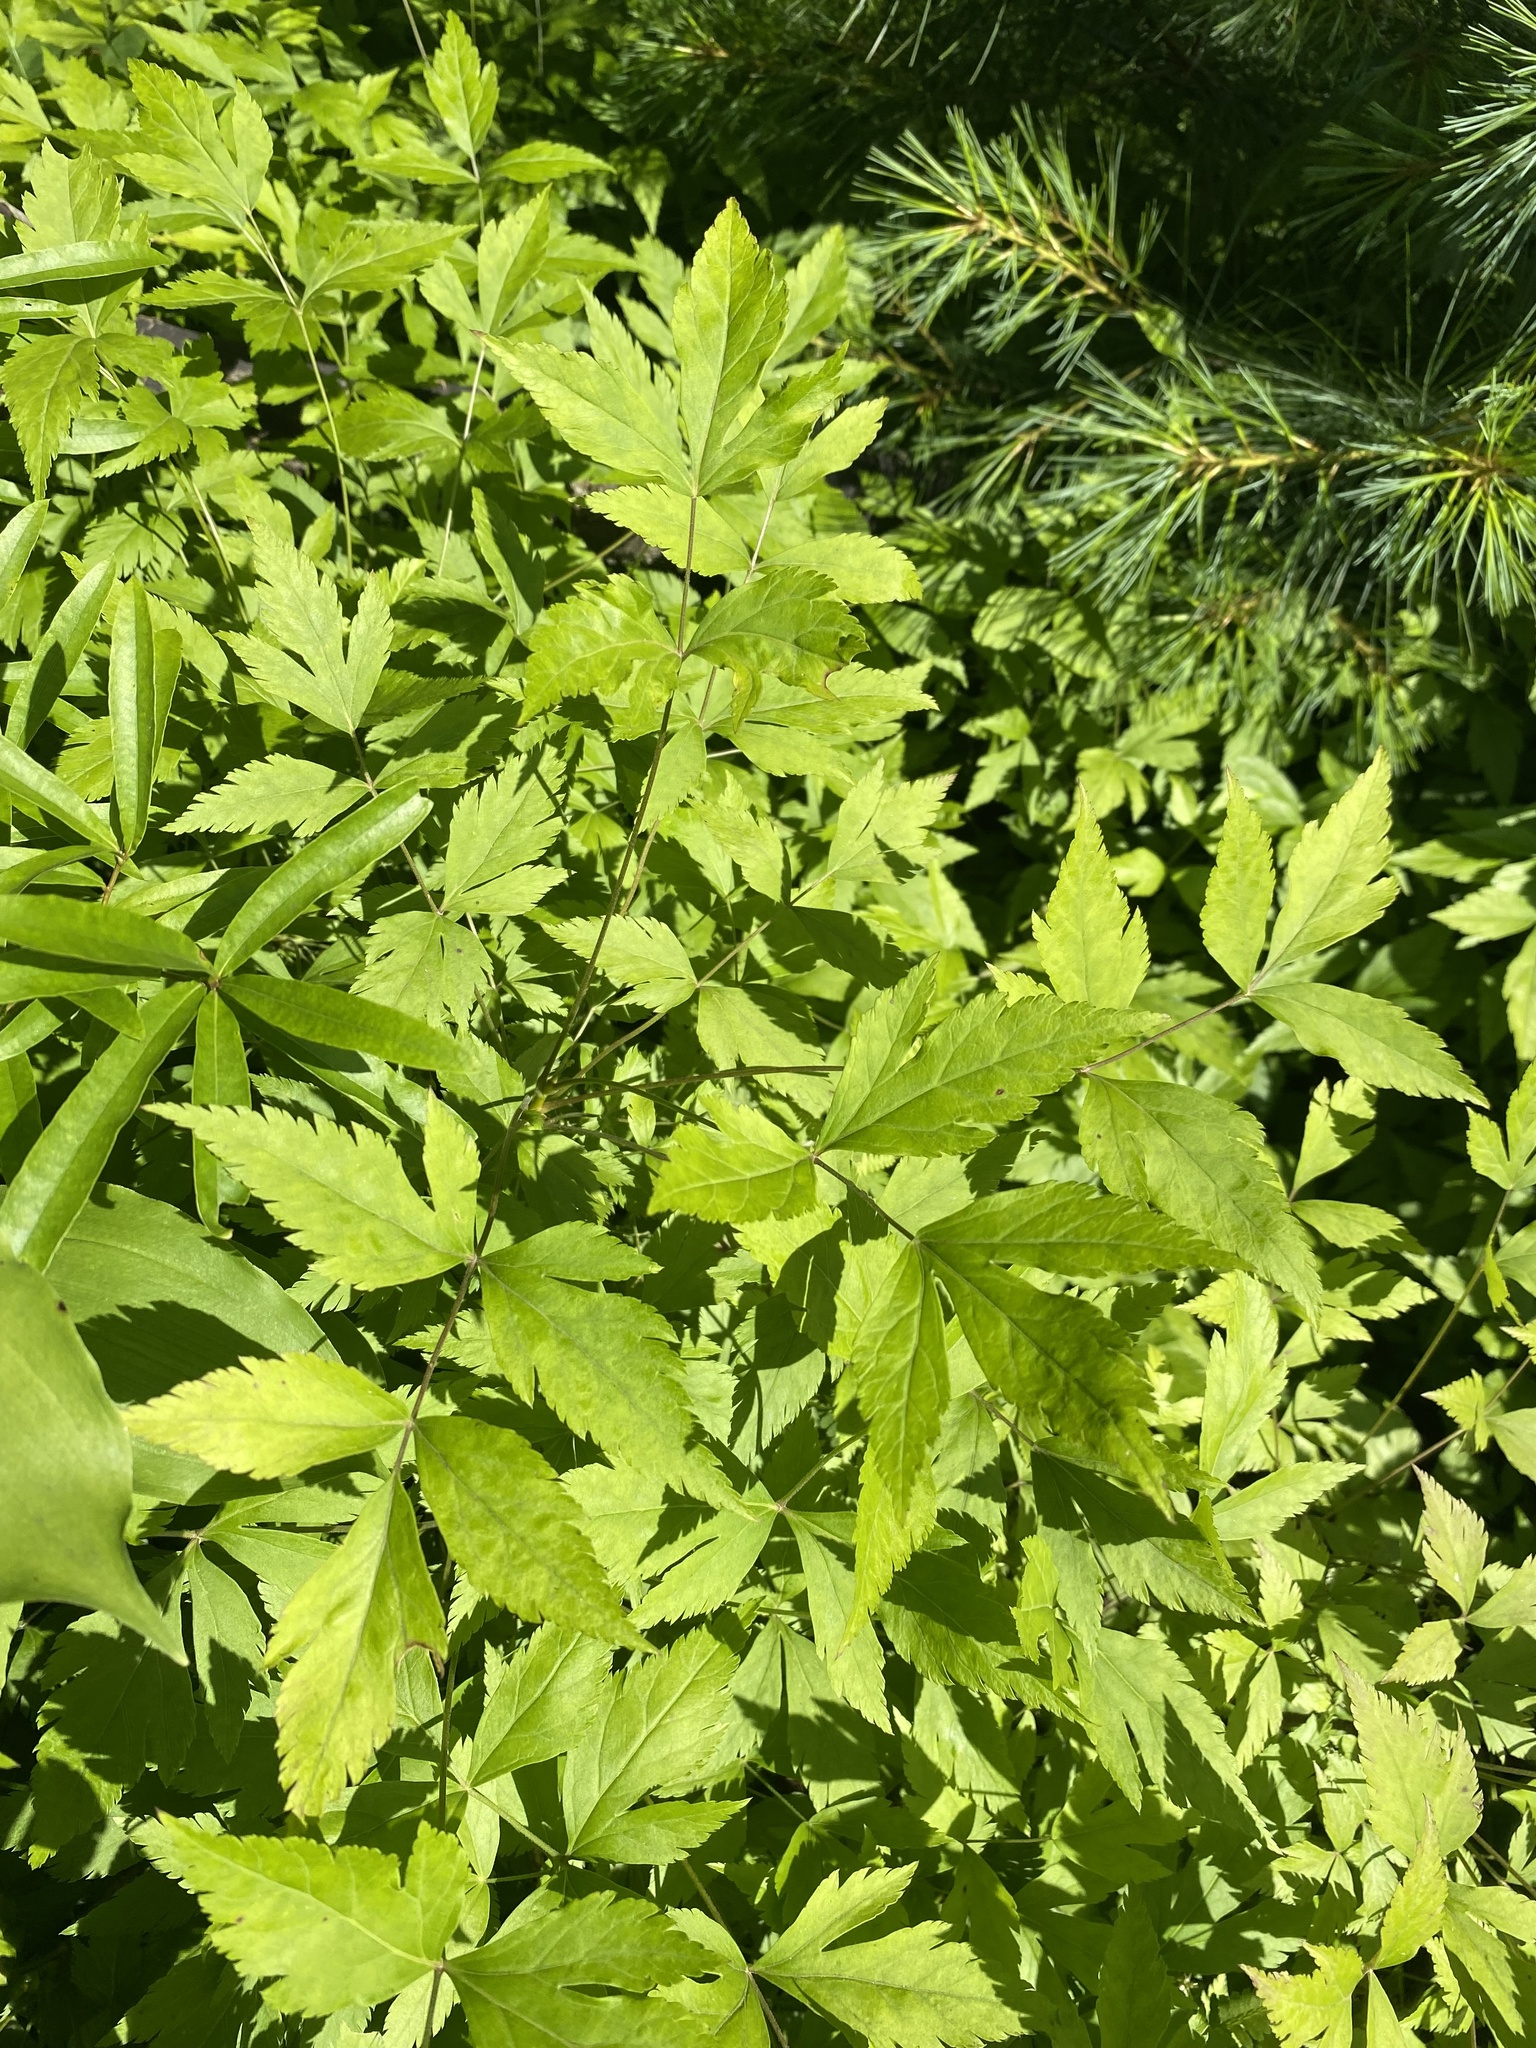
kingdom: Plantae
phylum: Tracheophyta
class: Magnoliopsida
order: Ranunculales
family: Ranunculaceae
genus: Xanthorhiza
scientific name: Xanthorhiza simplicissima
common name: Yellowroot
